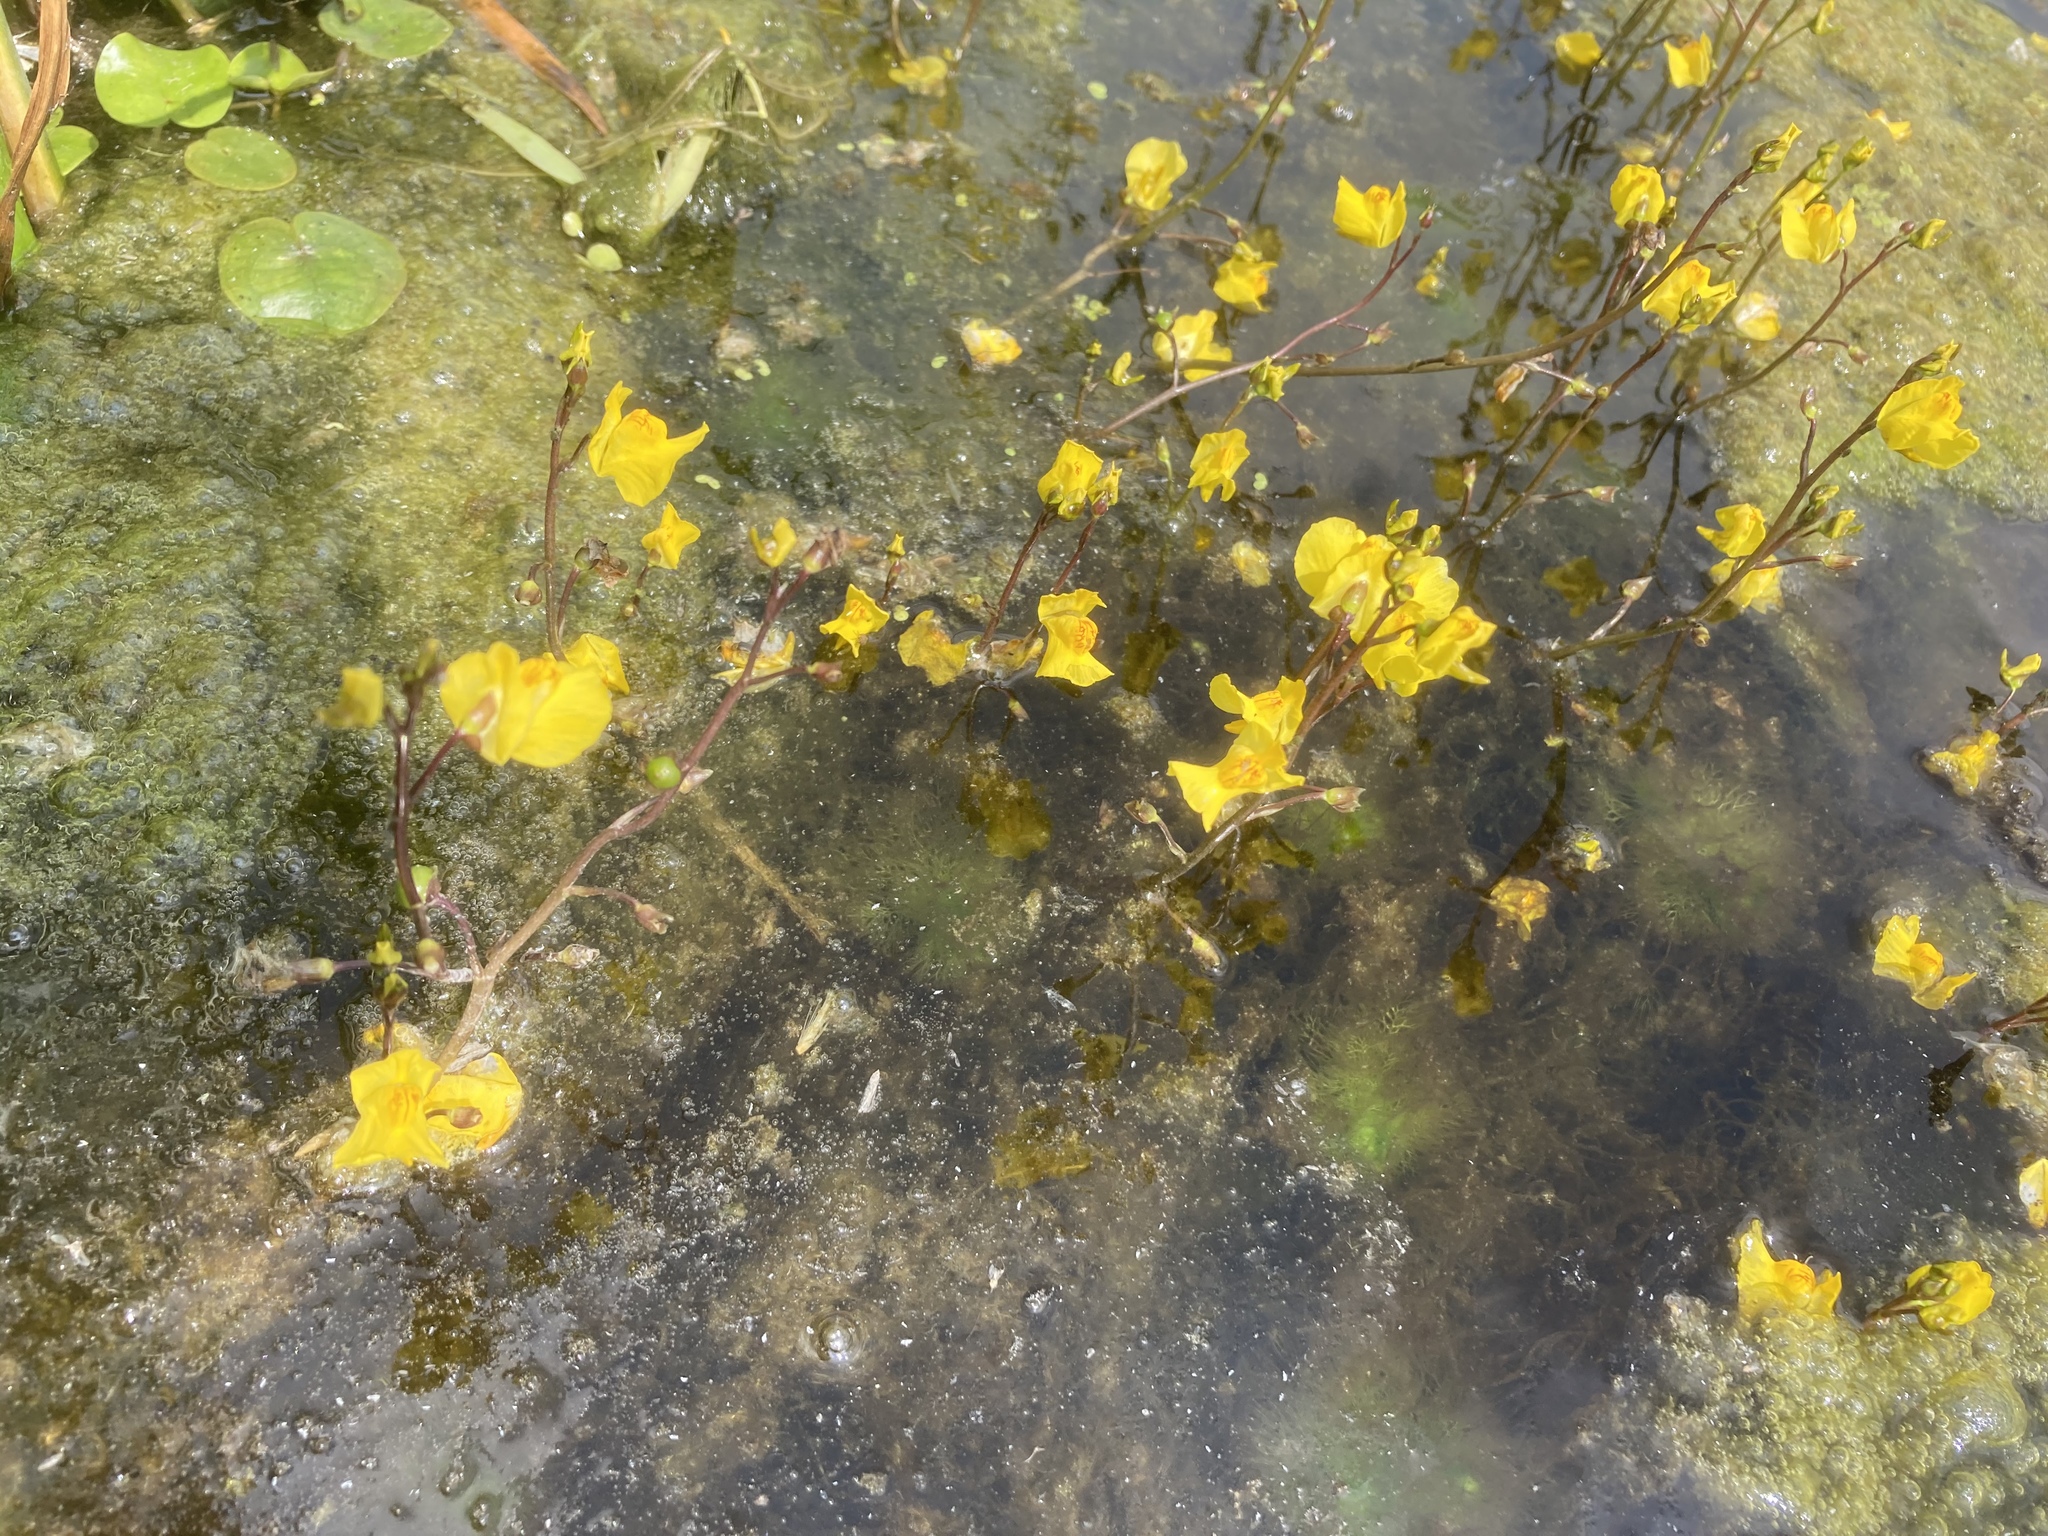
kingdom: Plantae
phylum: Tracheophyta
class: Magnoliopsida
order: Lamiales
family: Lentibulariaceae
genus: Utricularia
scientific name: Utricularia vulgaris
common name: Greater bladderwort
